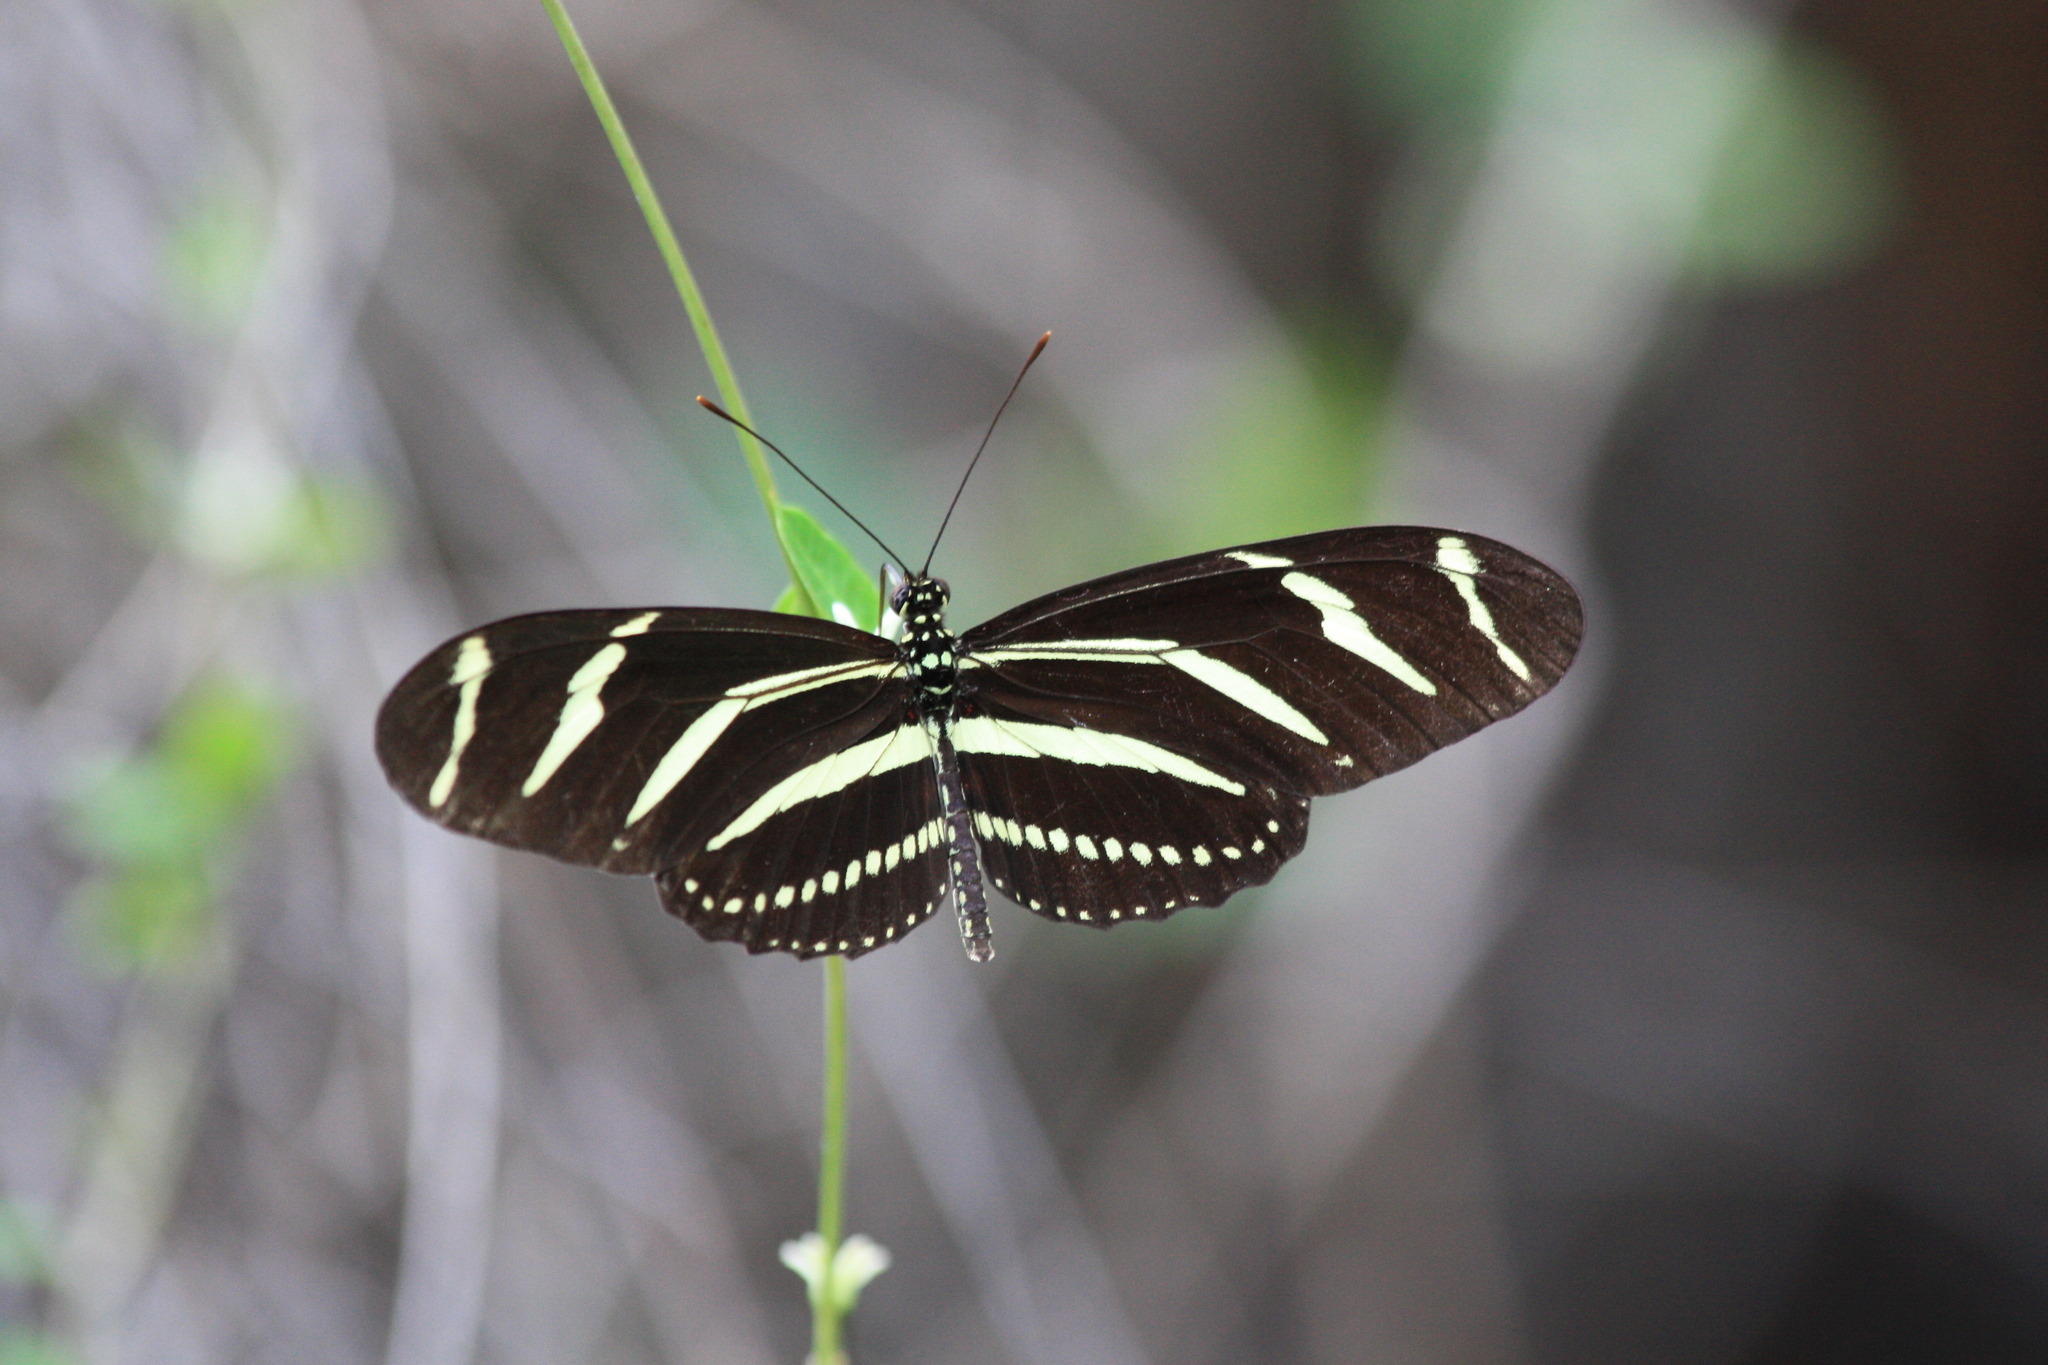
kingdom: Animalia
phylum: Arthropoda
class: Insecta
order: Lepidoptera
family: Nymphalidae
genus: Heliconius
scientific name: Heliconius charithonia
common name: Zebra long wing
